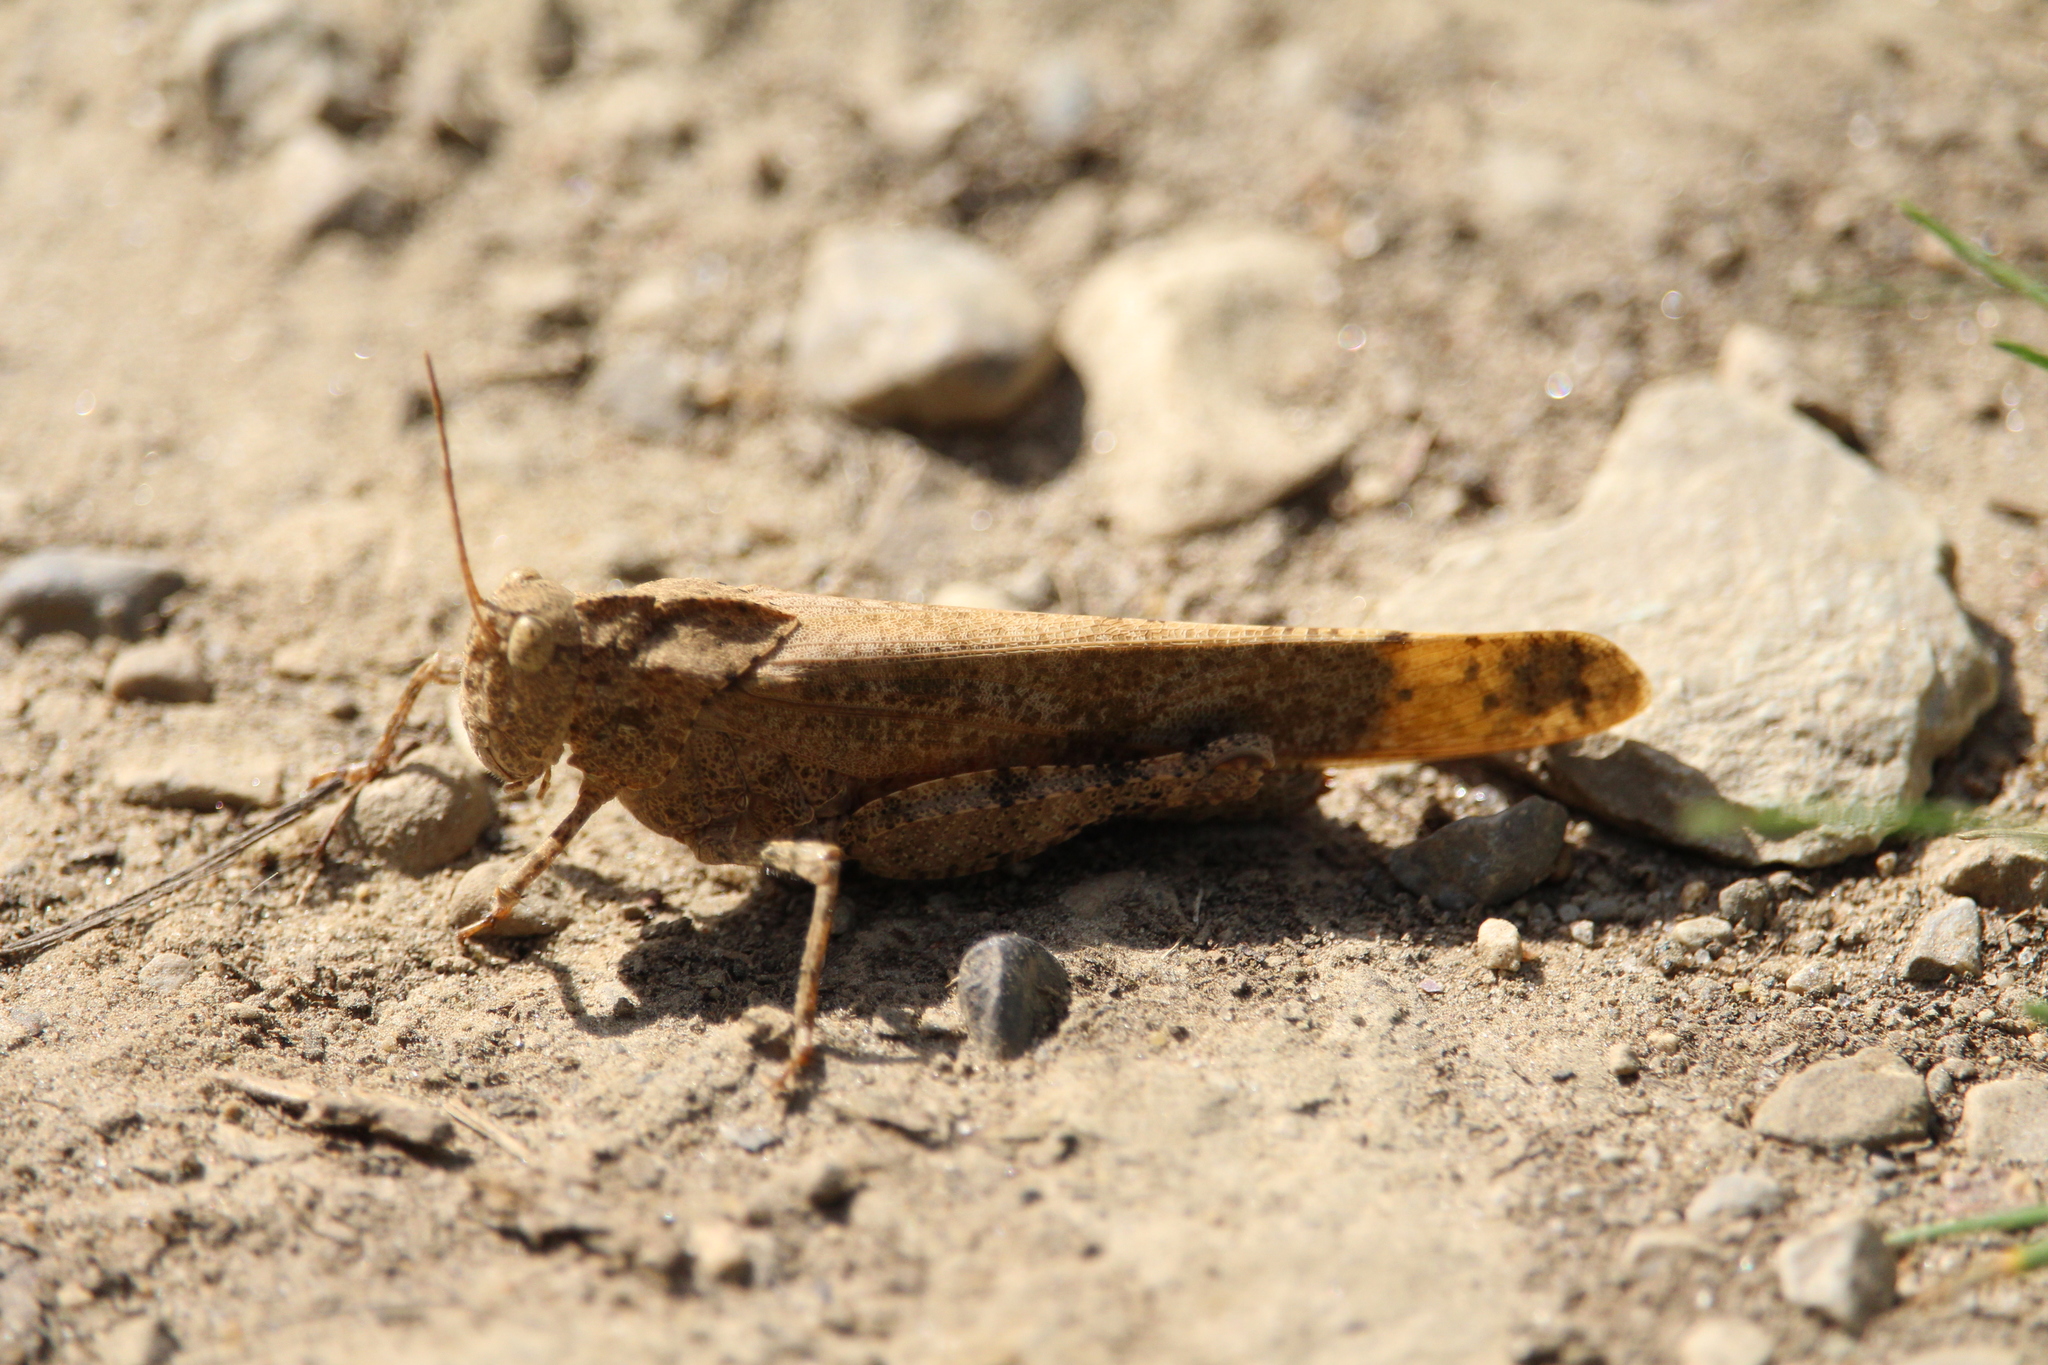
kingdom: Animalia
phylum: Arthropoda
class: Insecta
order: Orthoptera
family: Acrididae
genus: Dissosteira
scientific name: Dissosteira carolina
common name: Carolina grasshopper
